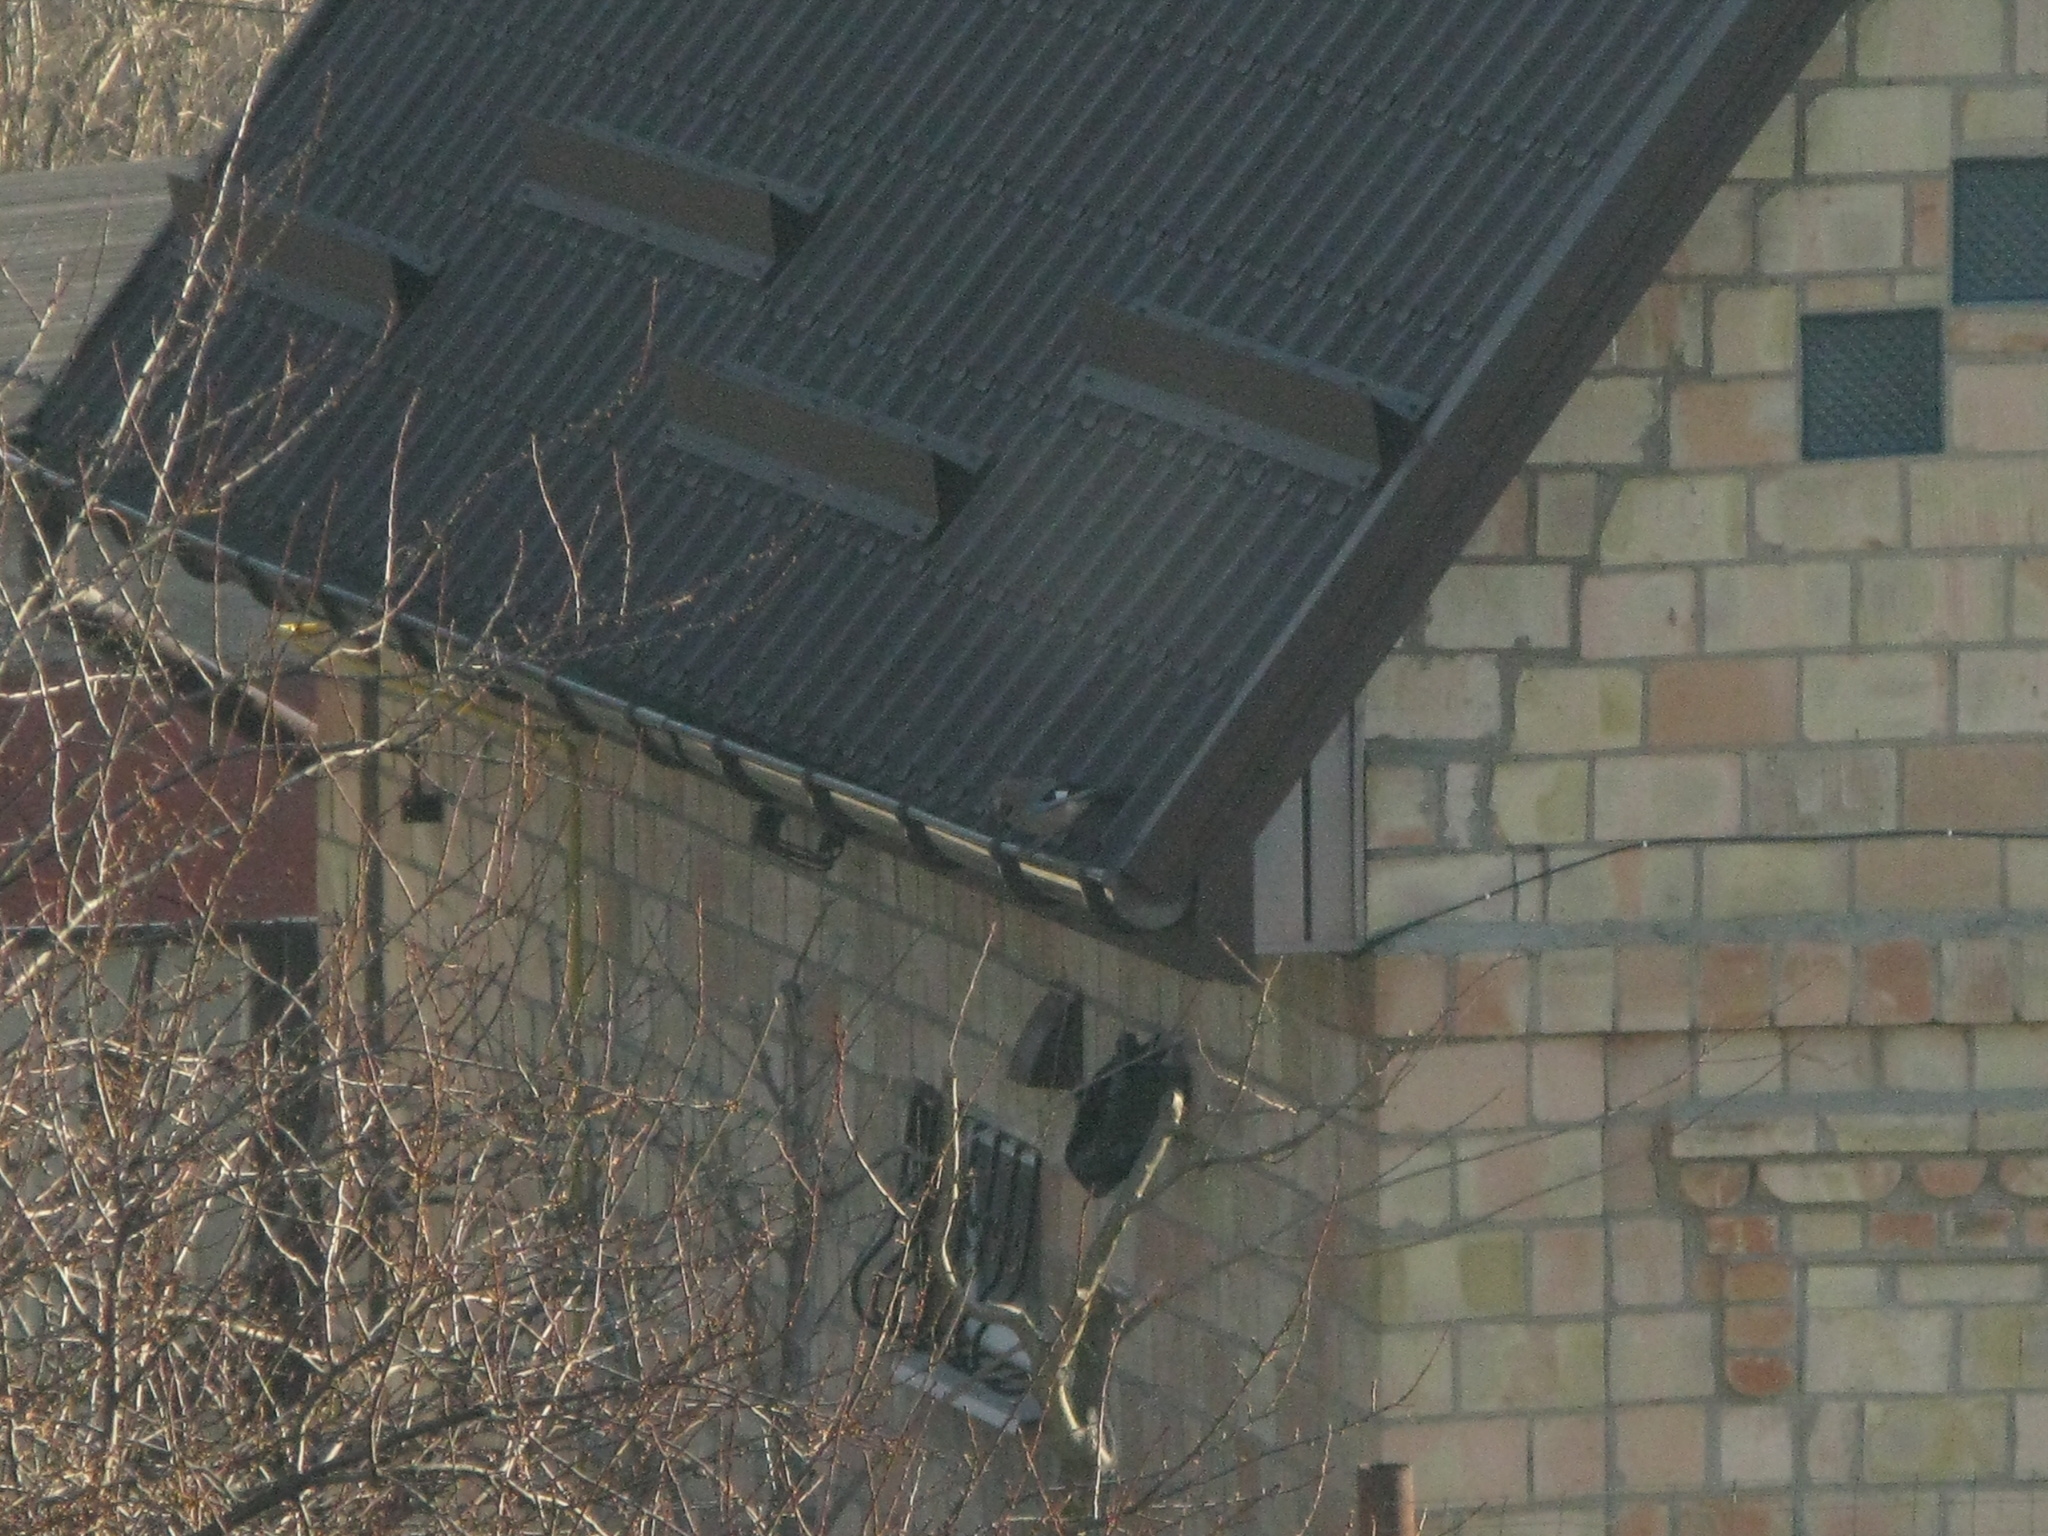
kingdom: Animalia
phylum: Chordata
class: Aves
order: Passeriformes
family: Corvidae
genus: Garrulus
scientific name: Garrulus glandarius
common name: Eurasian jay
